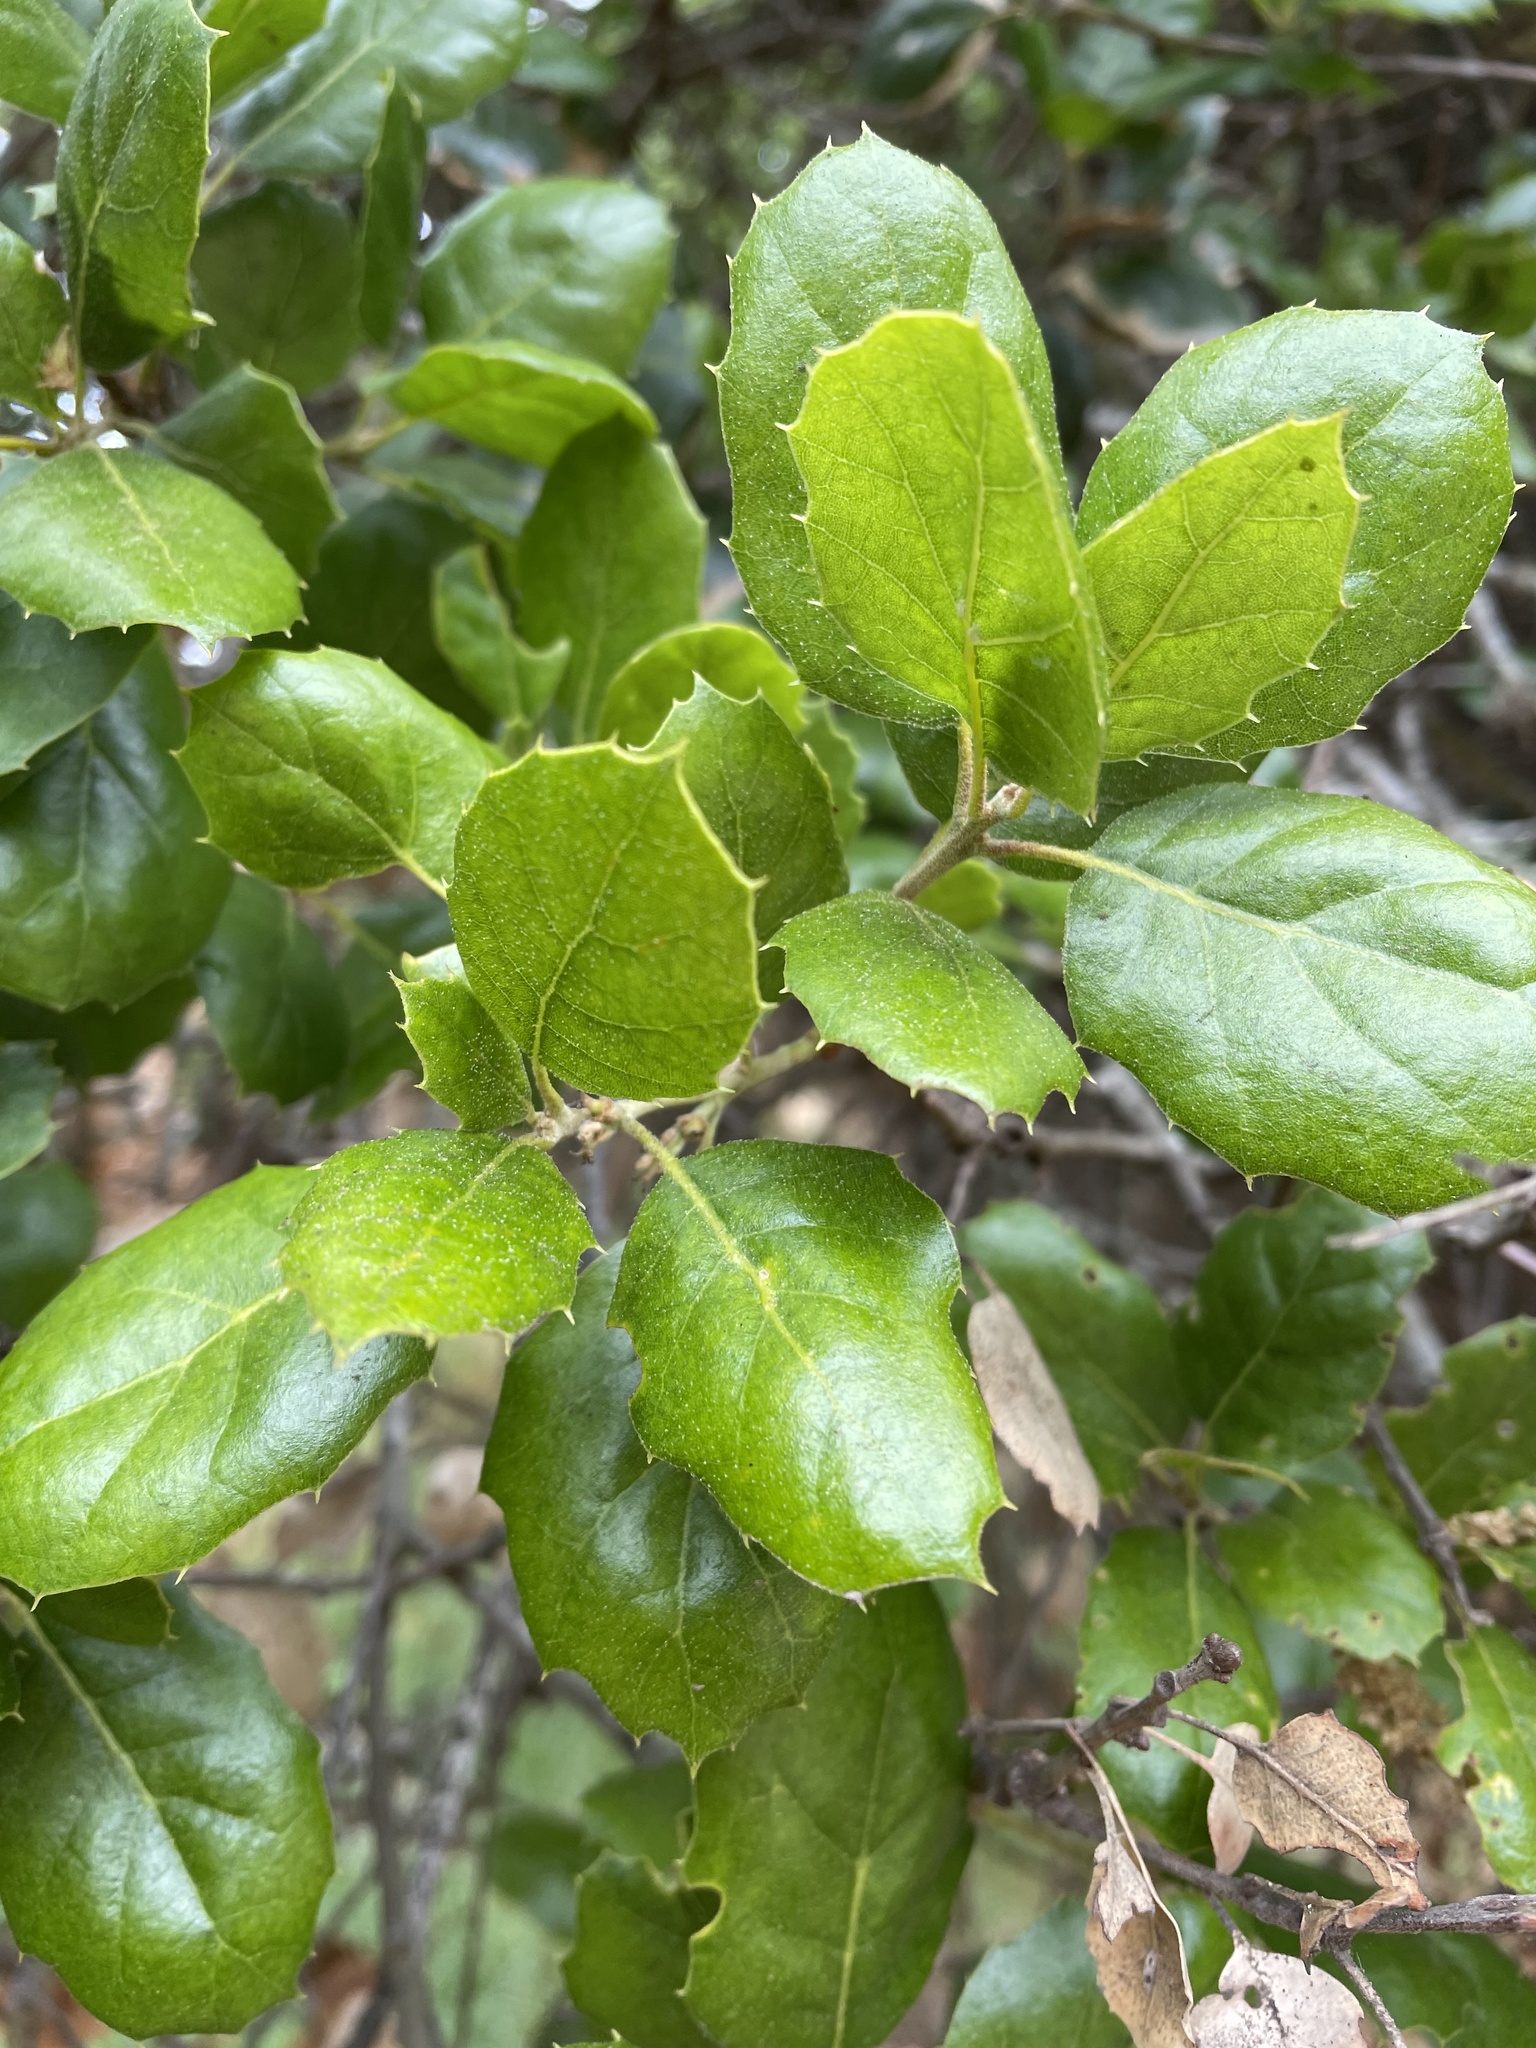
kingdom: Plantae
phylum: Tracheophyta
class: Magnoliopsida
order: Fagales
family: Fagaceae
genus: Quercus
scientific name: Quercus agrifolia
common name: California live oak
